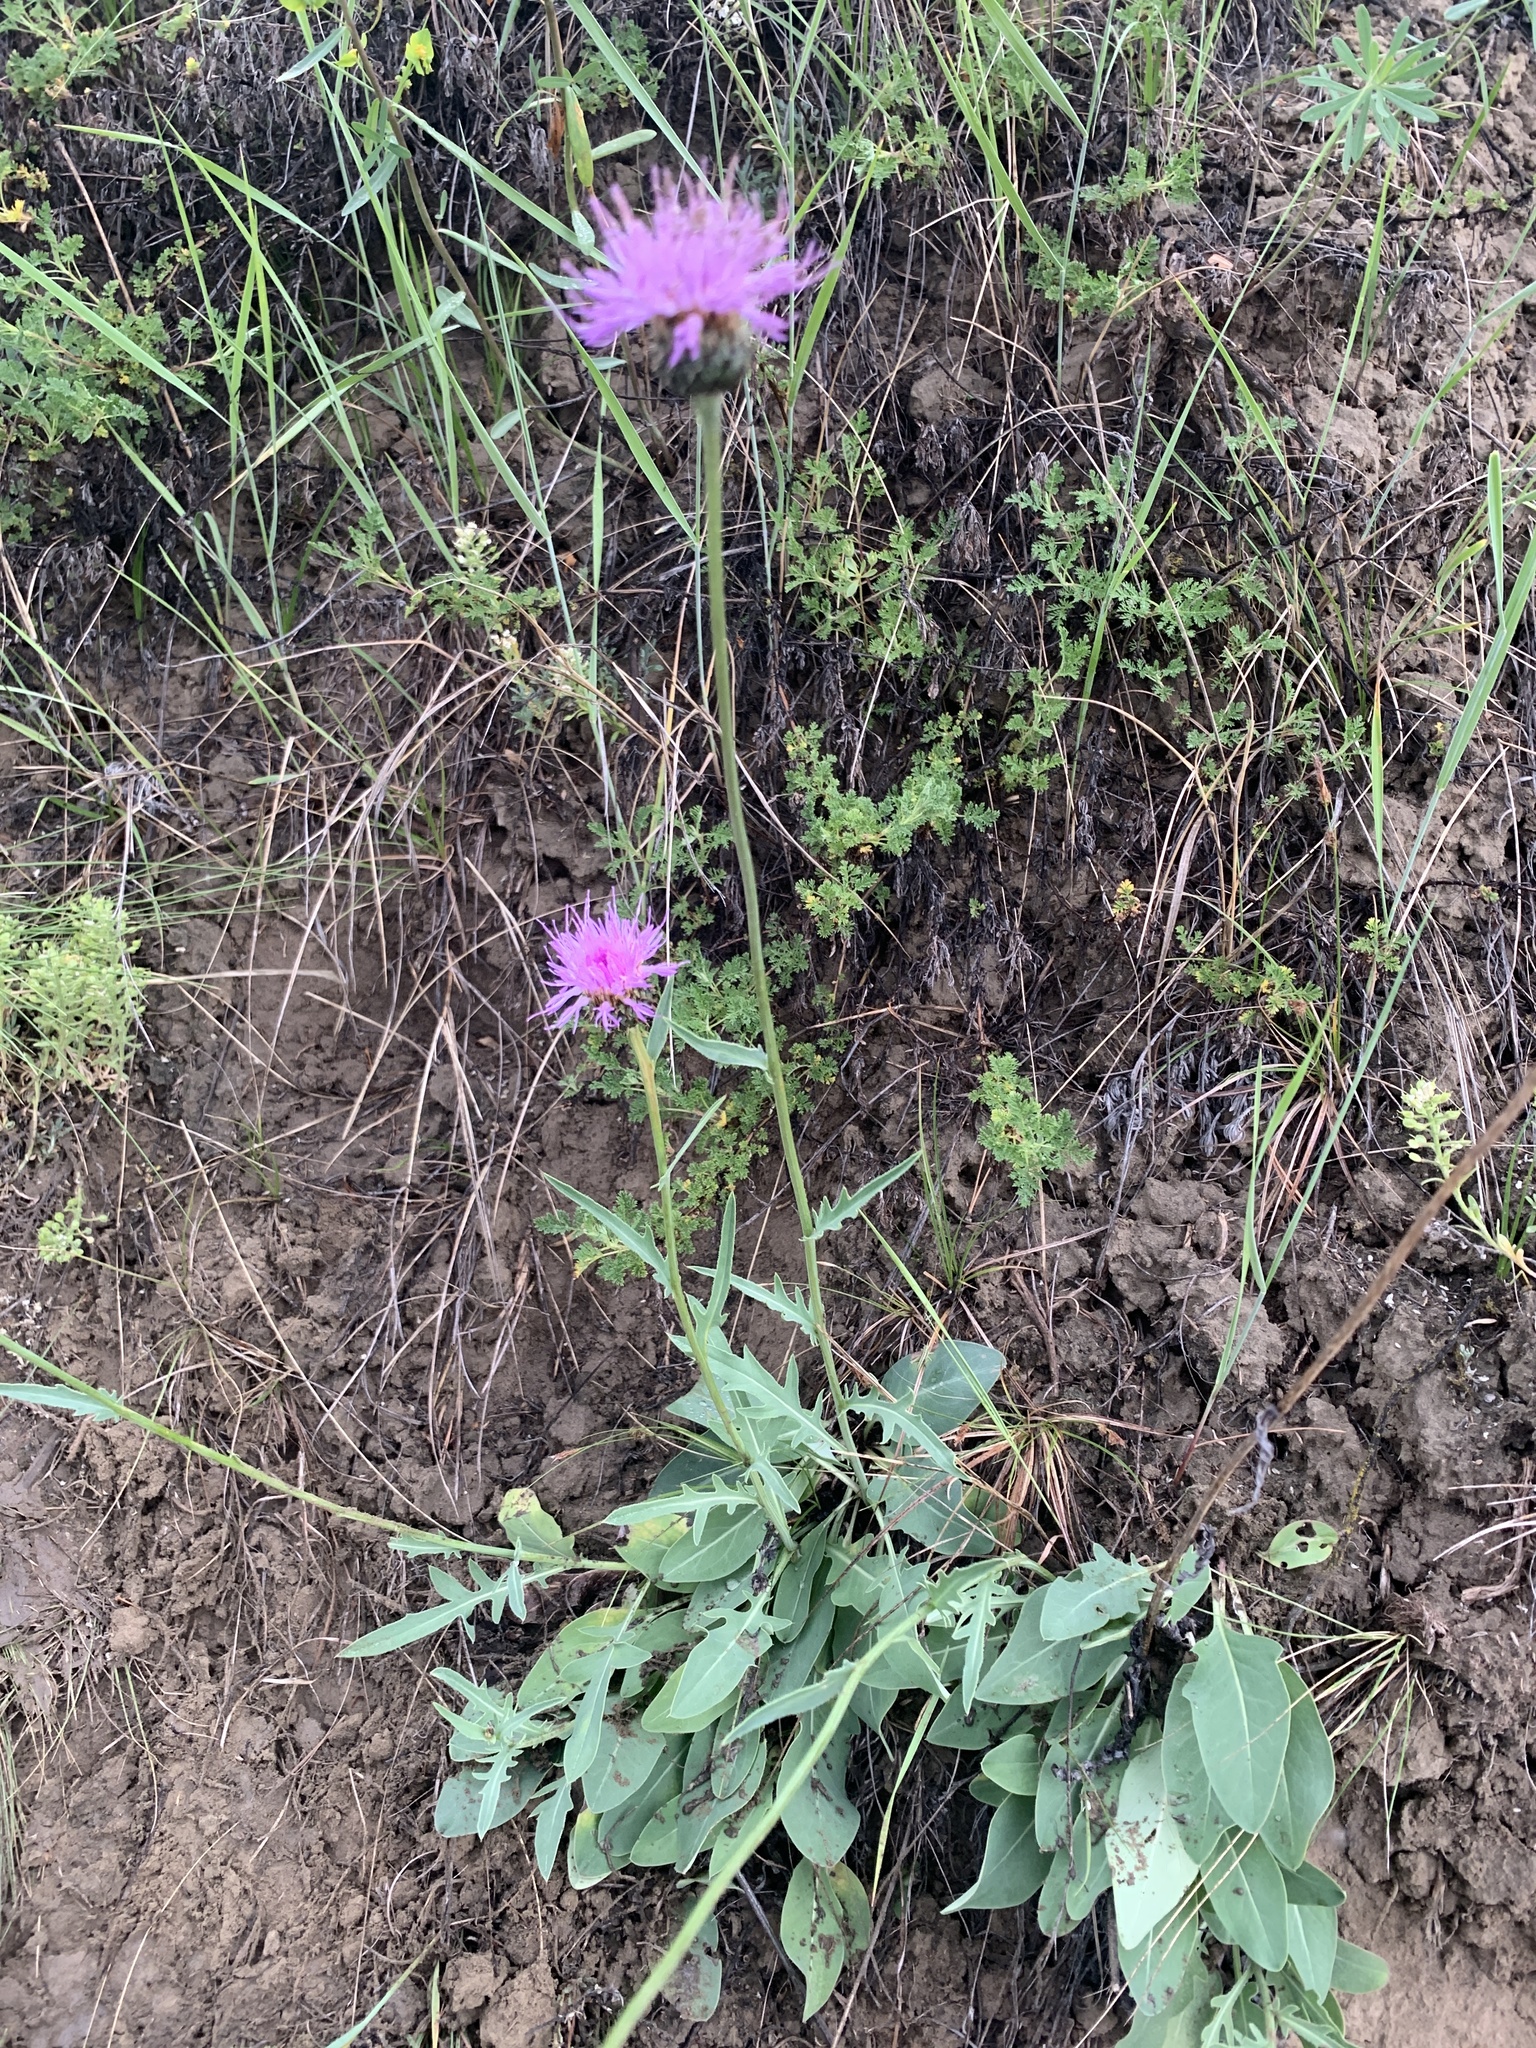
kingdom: Plantae
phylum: Tracheophyta
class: Magnoliopsida
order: Asterales
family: Asteraceae
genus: Klasea
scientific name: Klasea marginata
